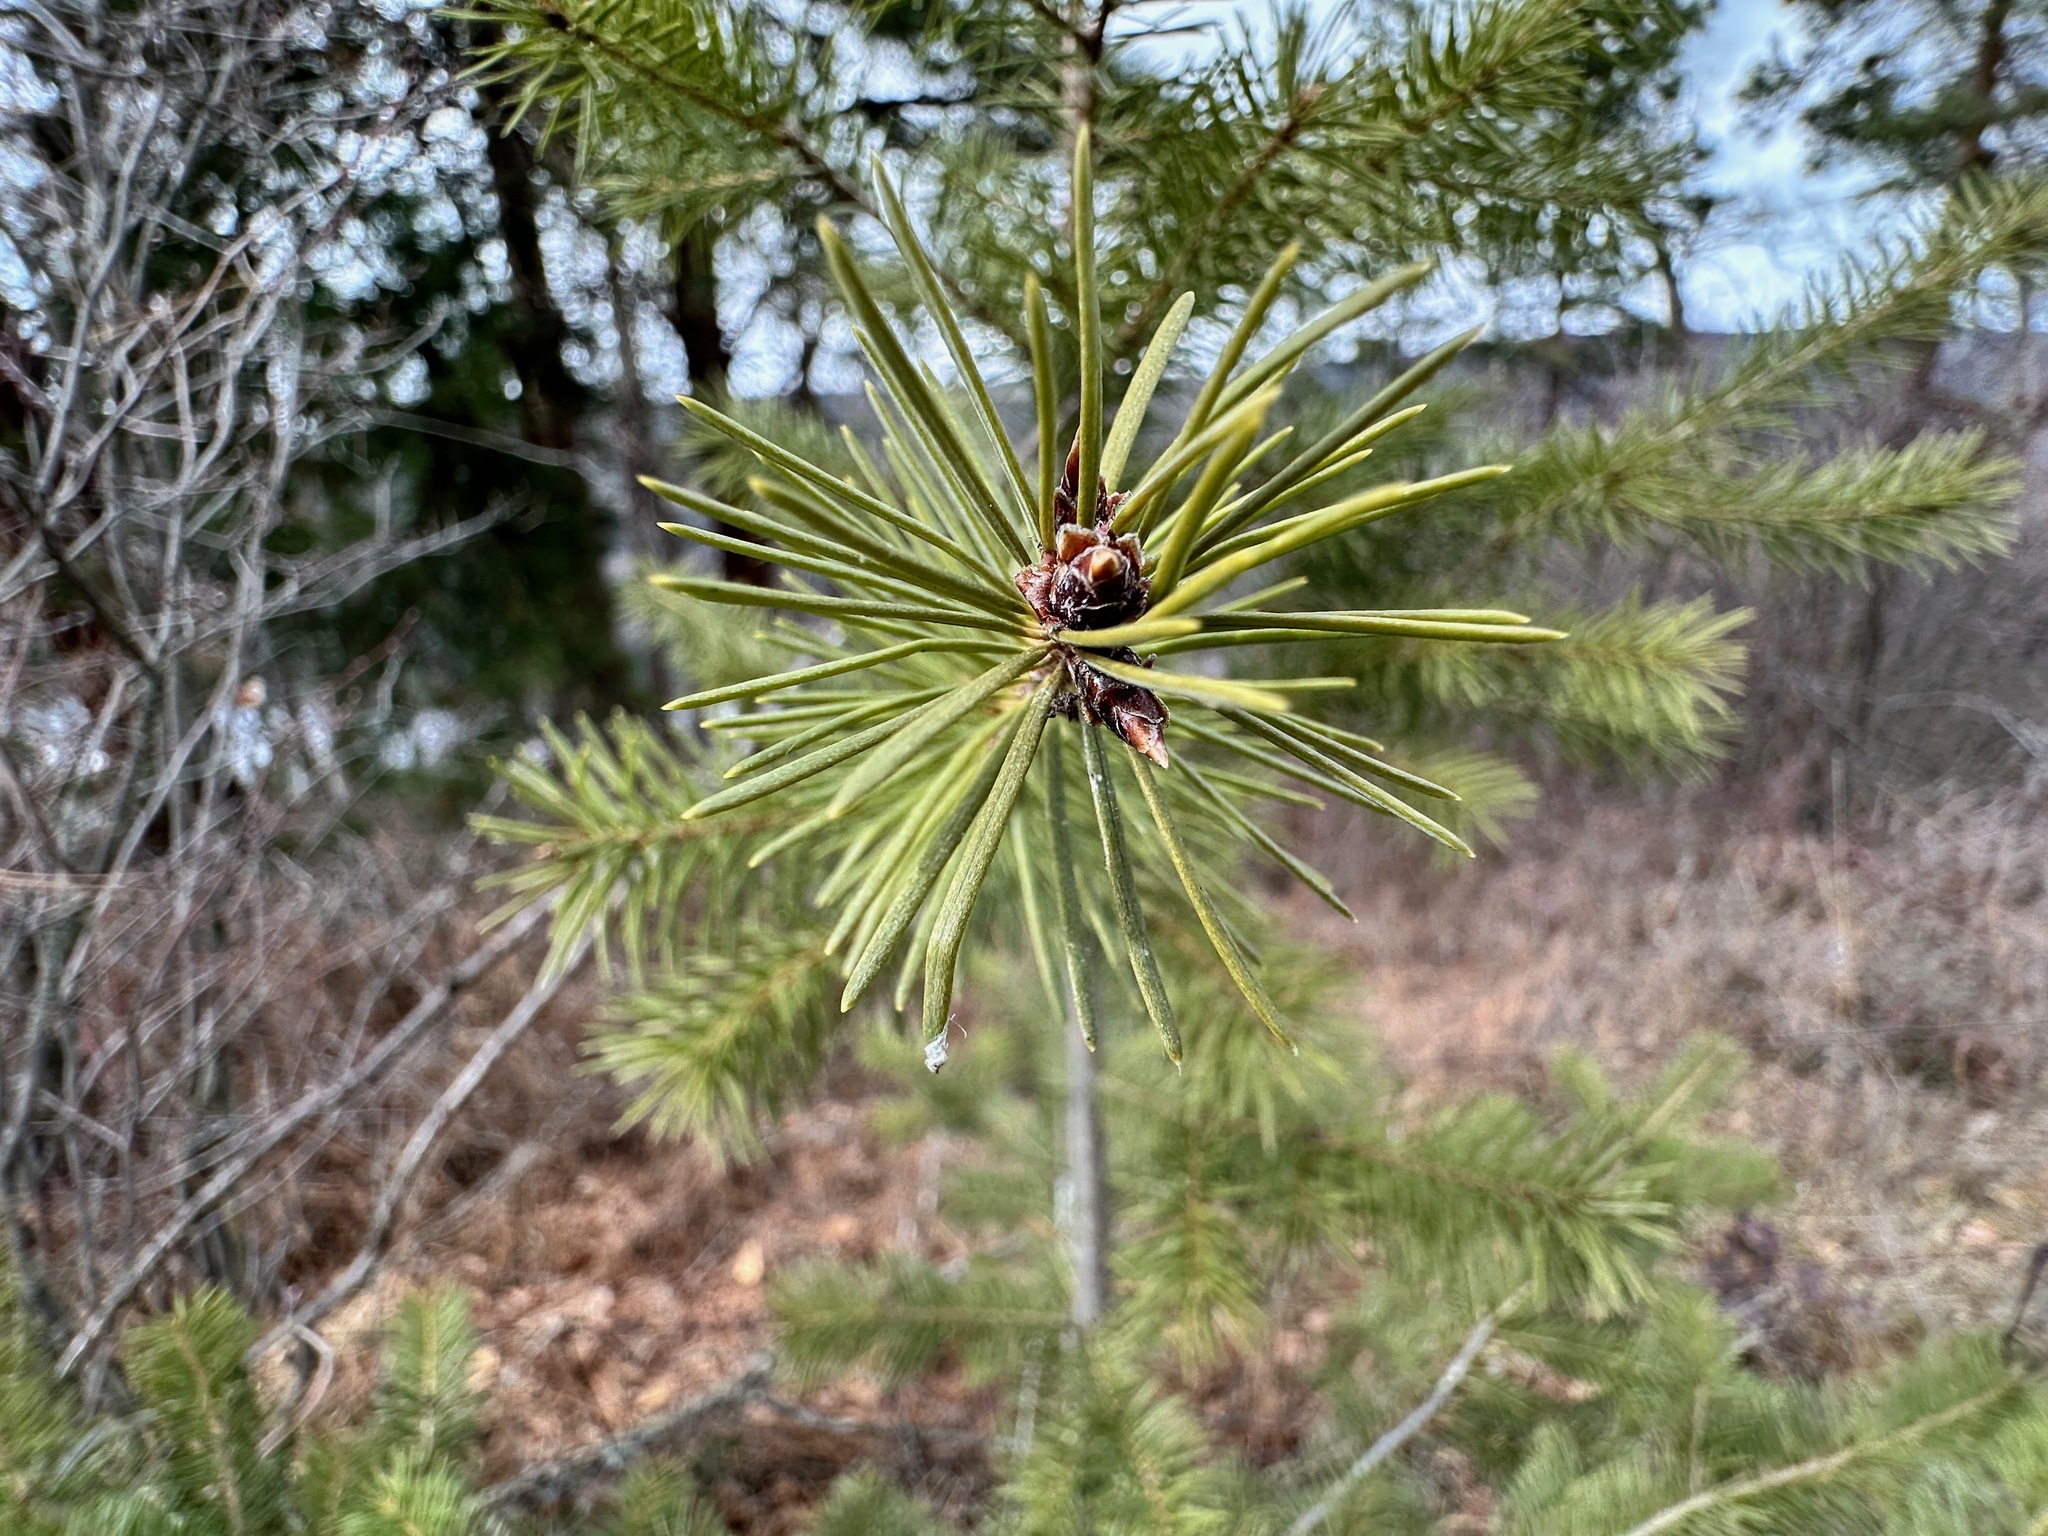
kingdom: Plantae
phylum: Tracheophyta
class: Pinopsida
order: Pinales
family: Pinaceae
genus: Pseudotsuga
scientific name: Pseudotsuga menziesii
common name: Douglas fir
